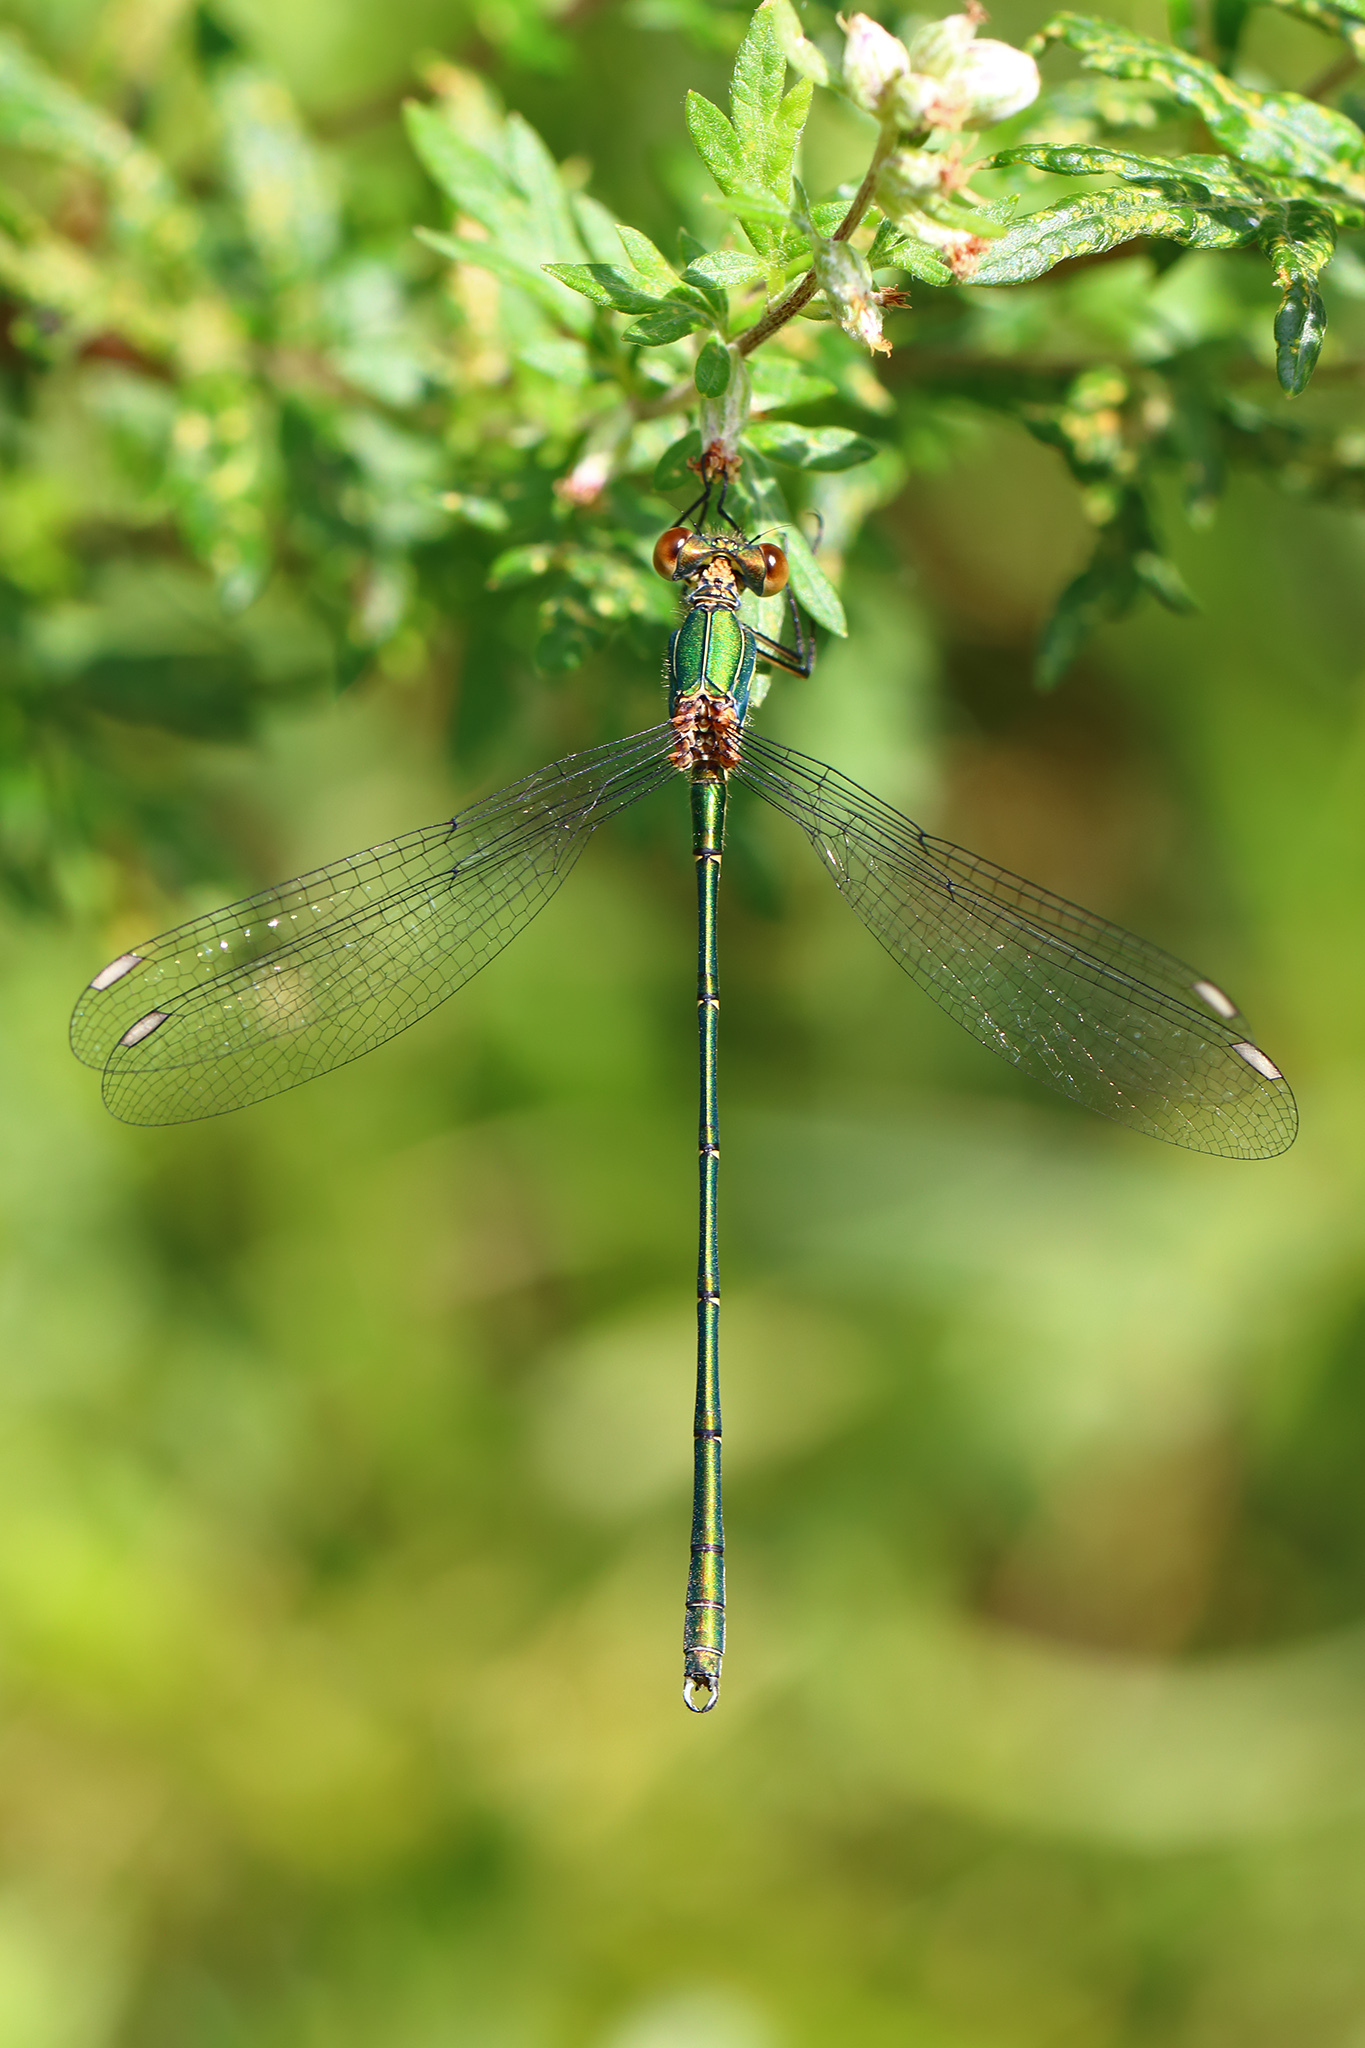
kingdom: Animalia
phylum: Arthropoda
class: Insecta
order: Odonata
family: Lestidae
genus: Chalcolestes
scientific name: Chalcolestes viridis
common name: Green emerald damselfly
